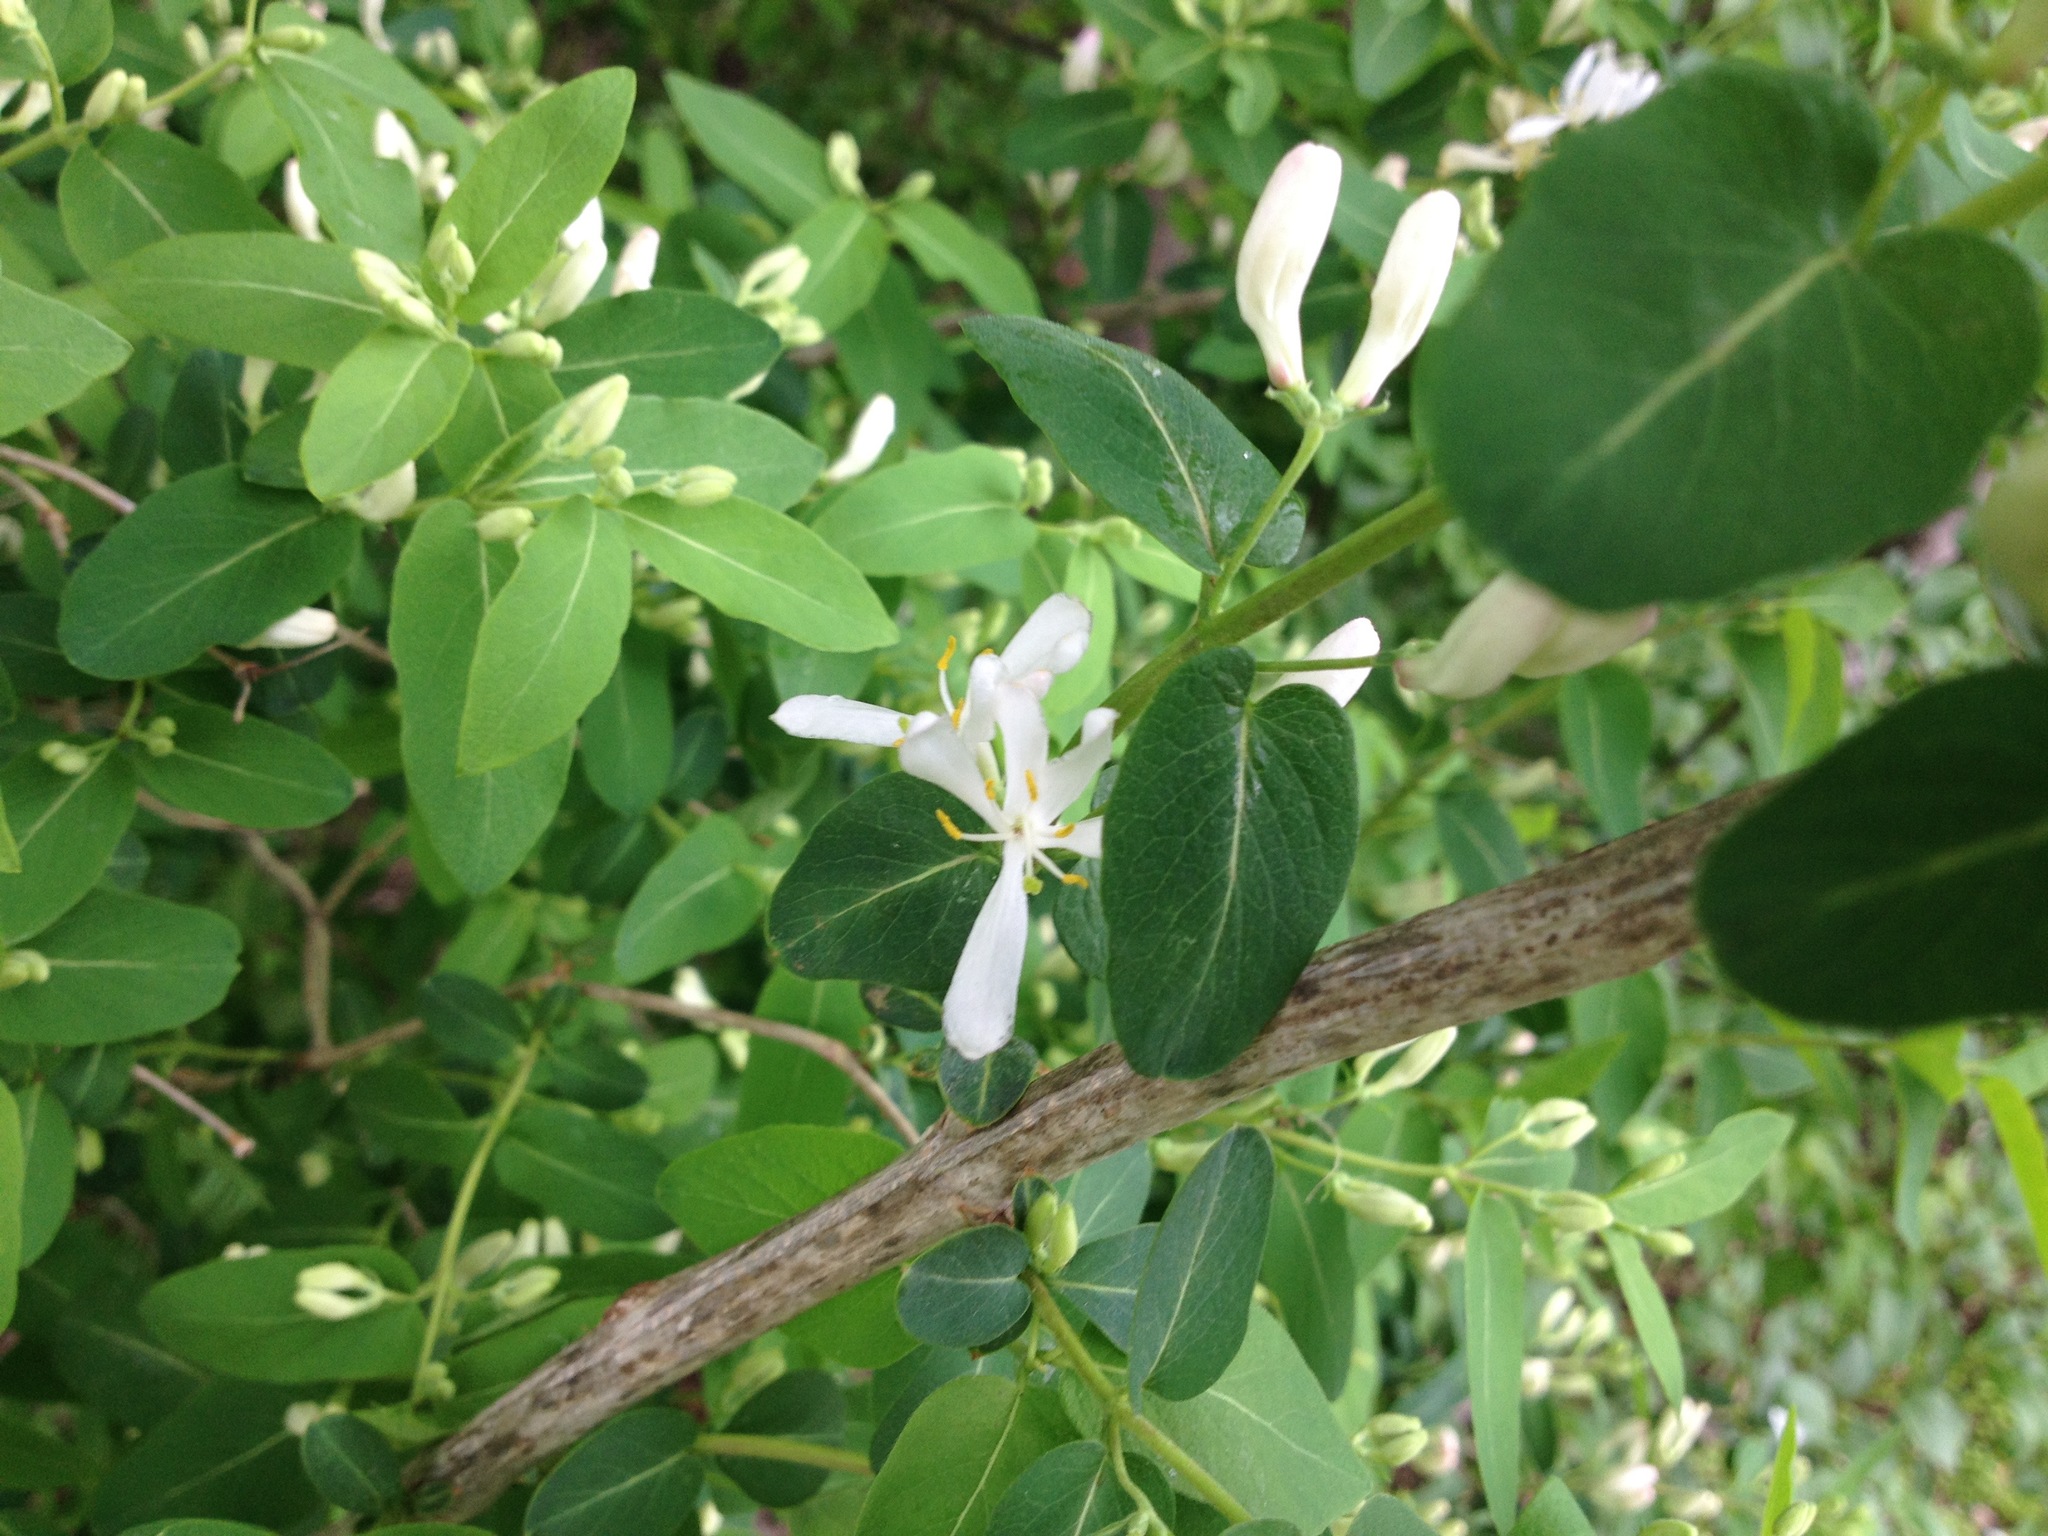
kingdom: Plantae
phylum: Tracheophyta
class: Magnoliopsida
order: Dipsacales
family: Caprifoliaceae
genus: Lonicera
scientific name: Lonicera morrowii
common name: Morrow's honeysuckle
